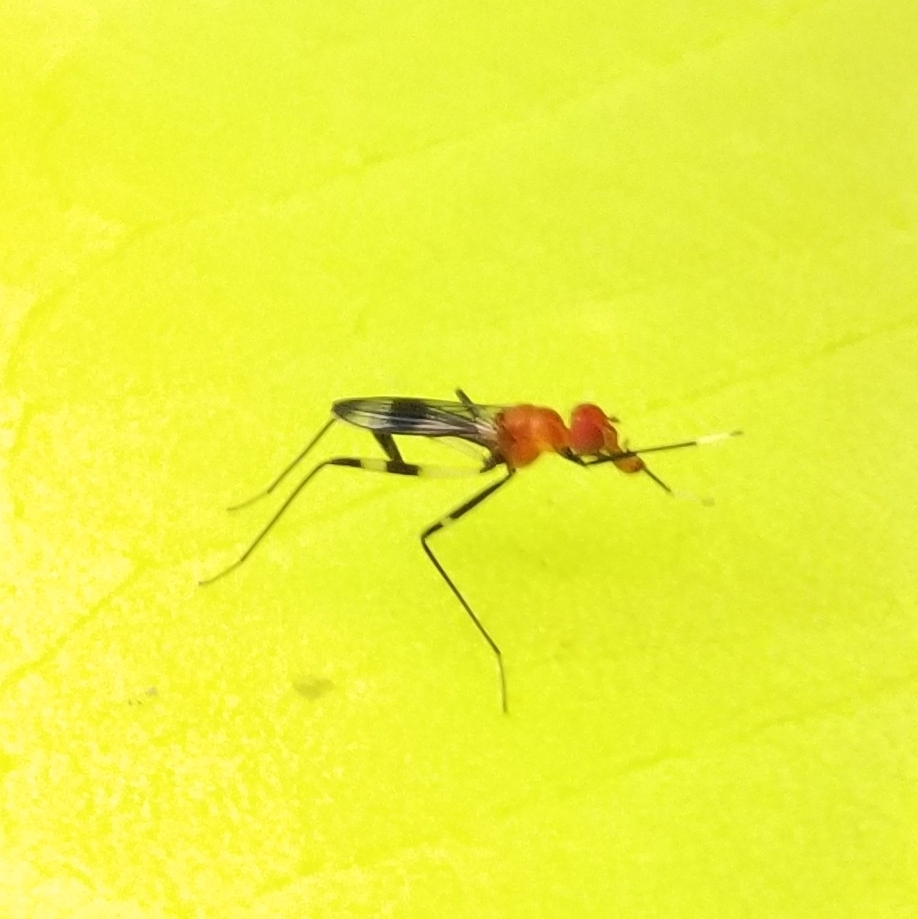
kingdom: Animalia
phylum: Arthropoda
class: Insecta
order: Diptera
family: Micropezidae
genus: Grallipeza
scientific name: Grallipeza scurra
